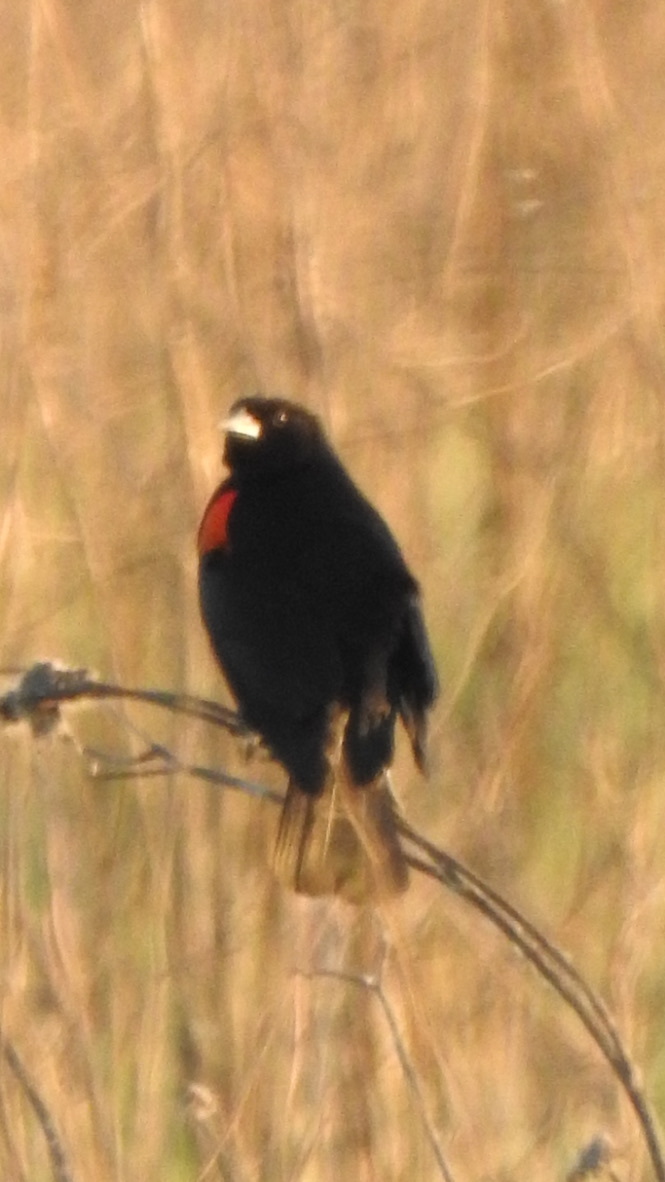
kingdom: Animalia
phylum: Chordata
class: Aves
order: Passeriformes
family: Icteridae
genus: Agelaius
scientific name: Agelaius phoeniceus
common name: Red-winged blackbird
